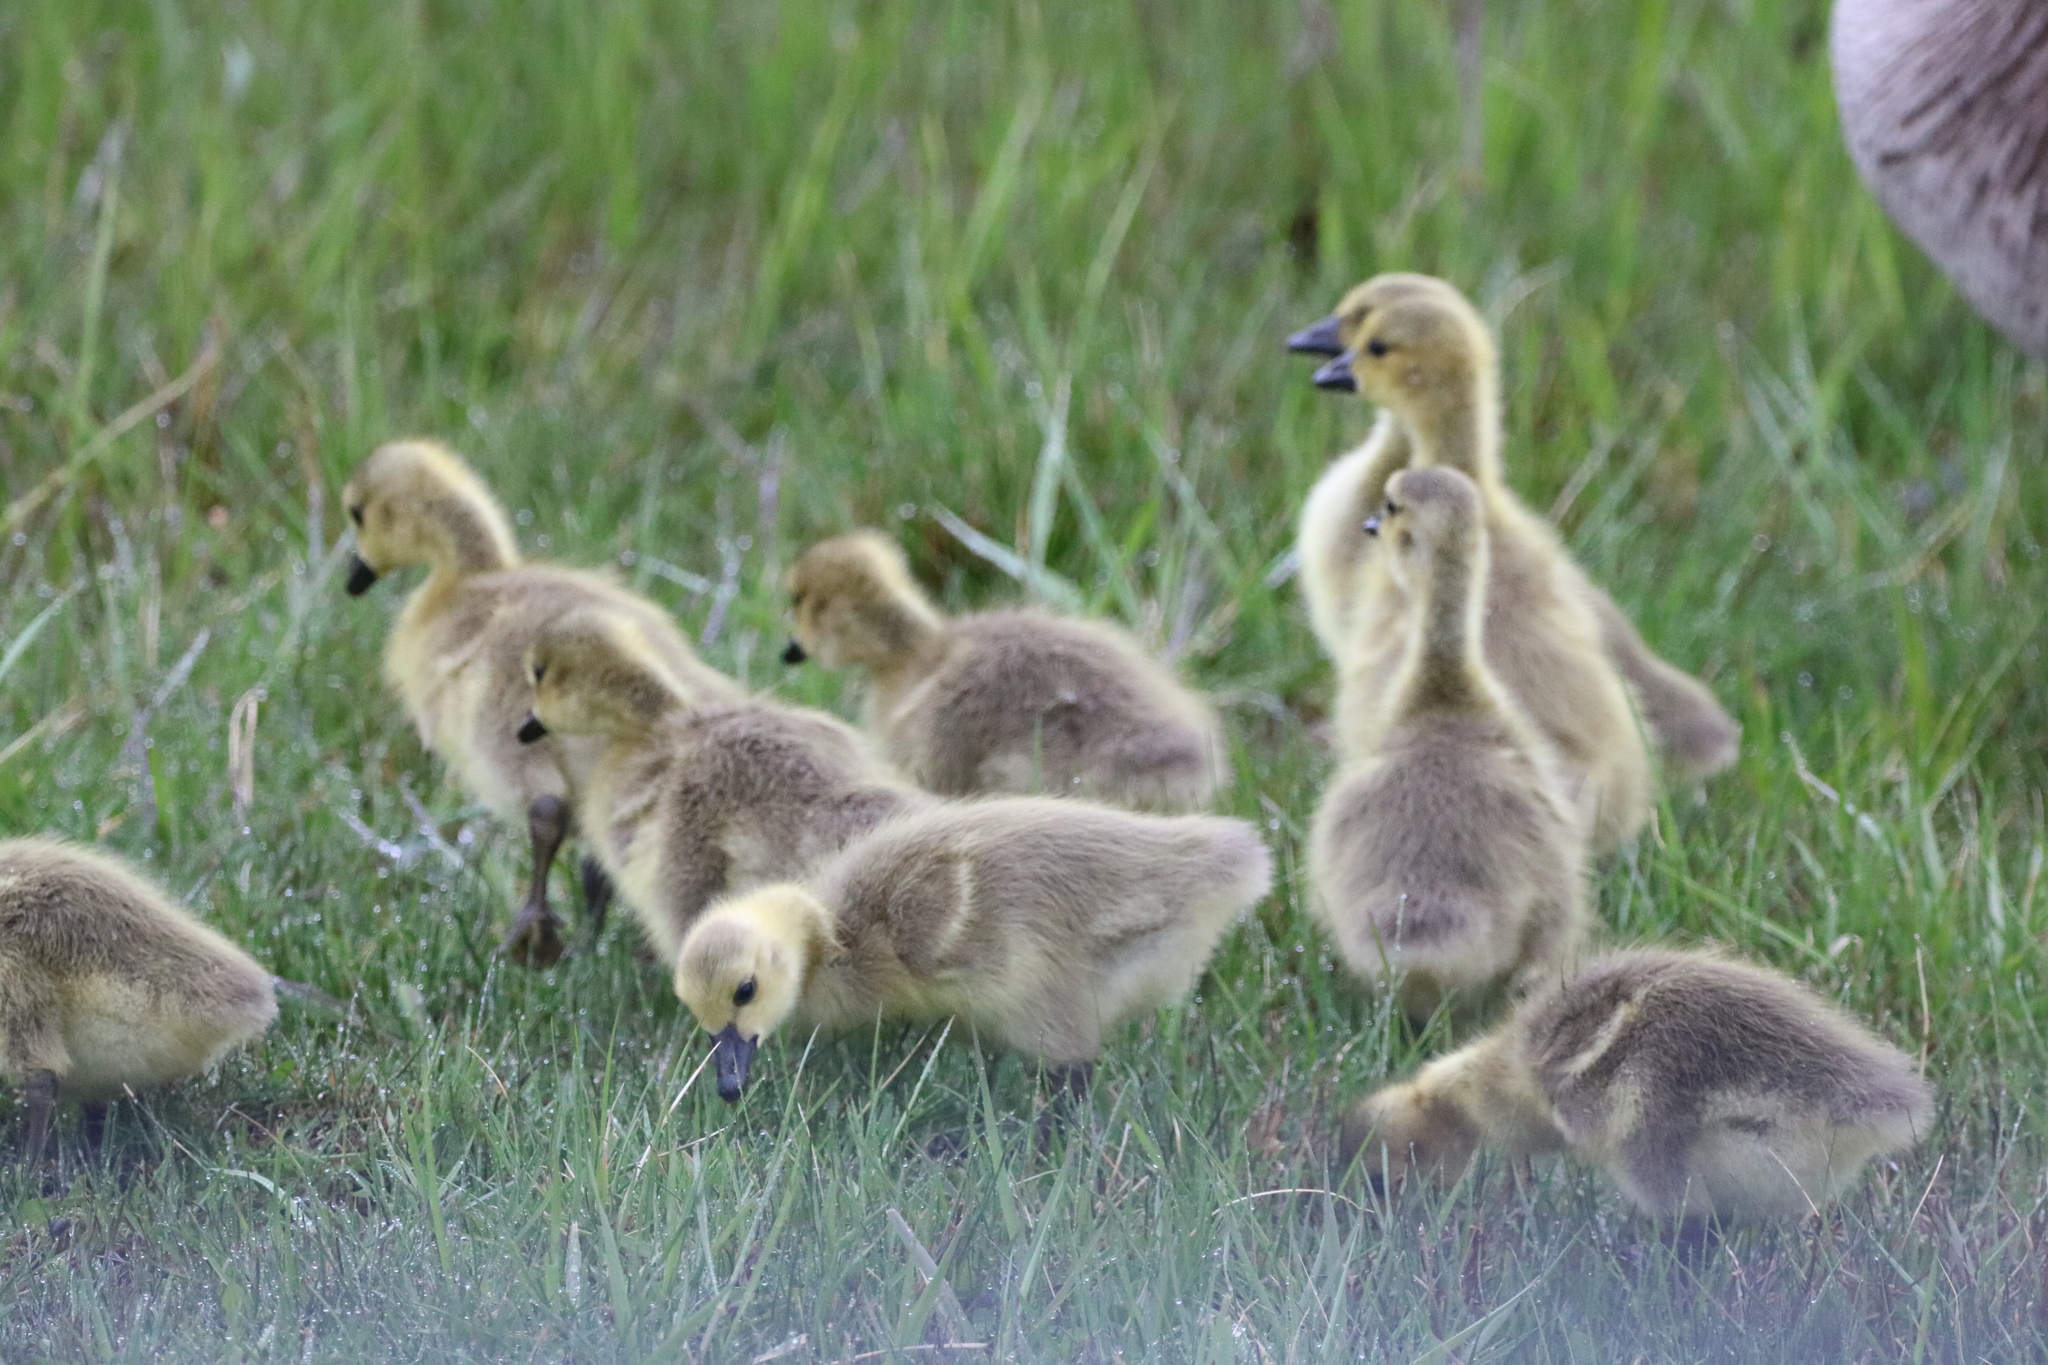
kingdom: Animalia
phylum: Chordata
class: Aves
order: Anseriformes
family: Anatidae
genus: Branta
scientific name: Branta canadensis
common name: Canada goose
